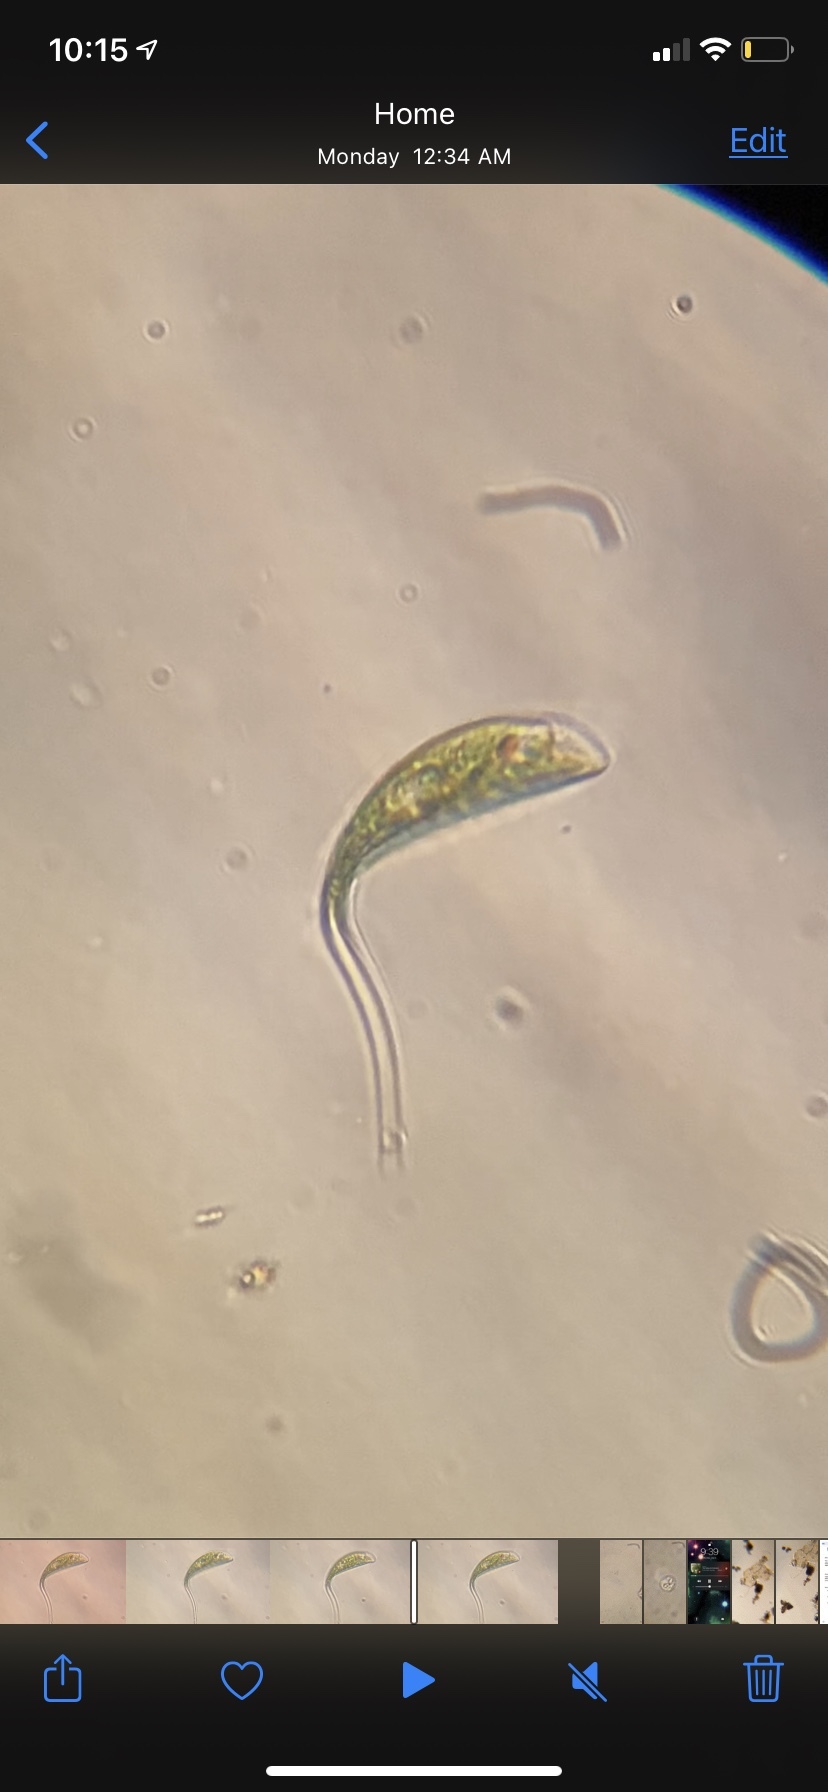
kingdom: Protozoa
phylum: Euglenozoa
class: Euglenoidea
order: Euglenida
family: Phacidae
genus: Phacus
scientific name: Phacus lismorensis
